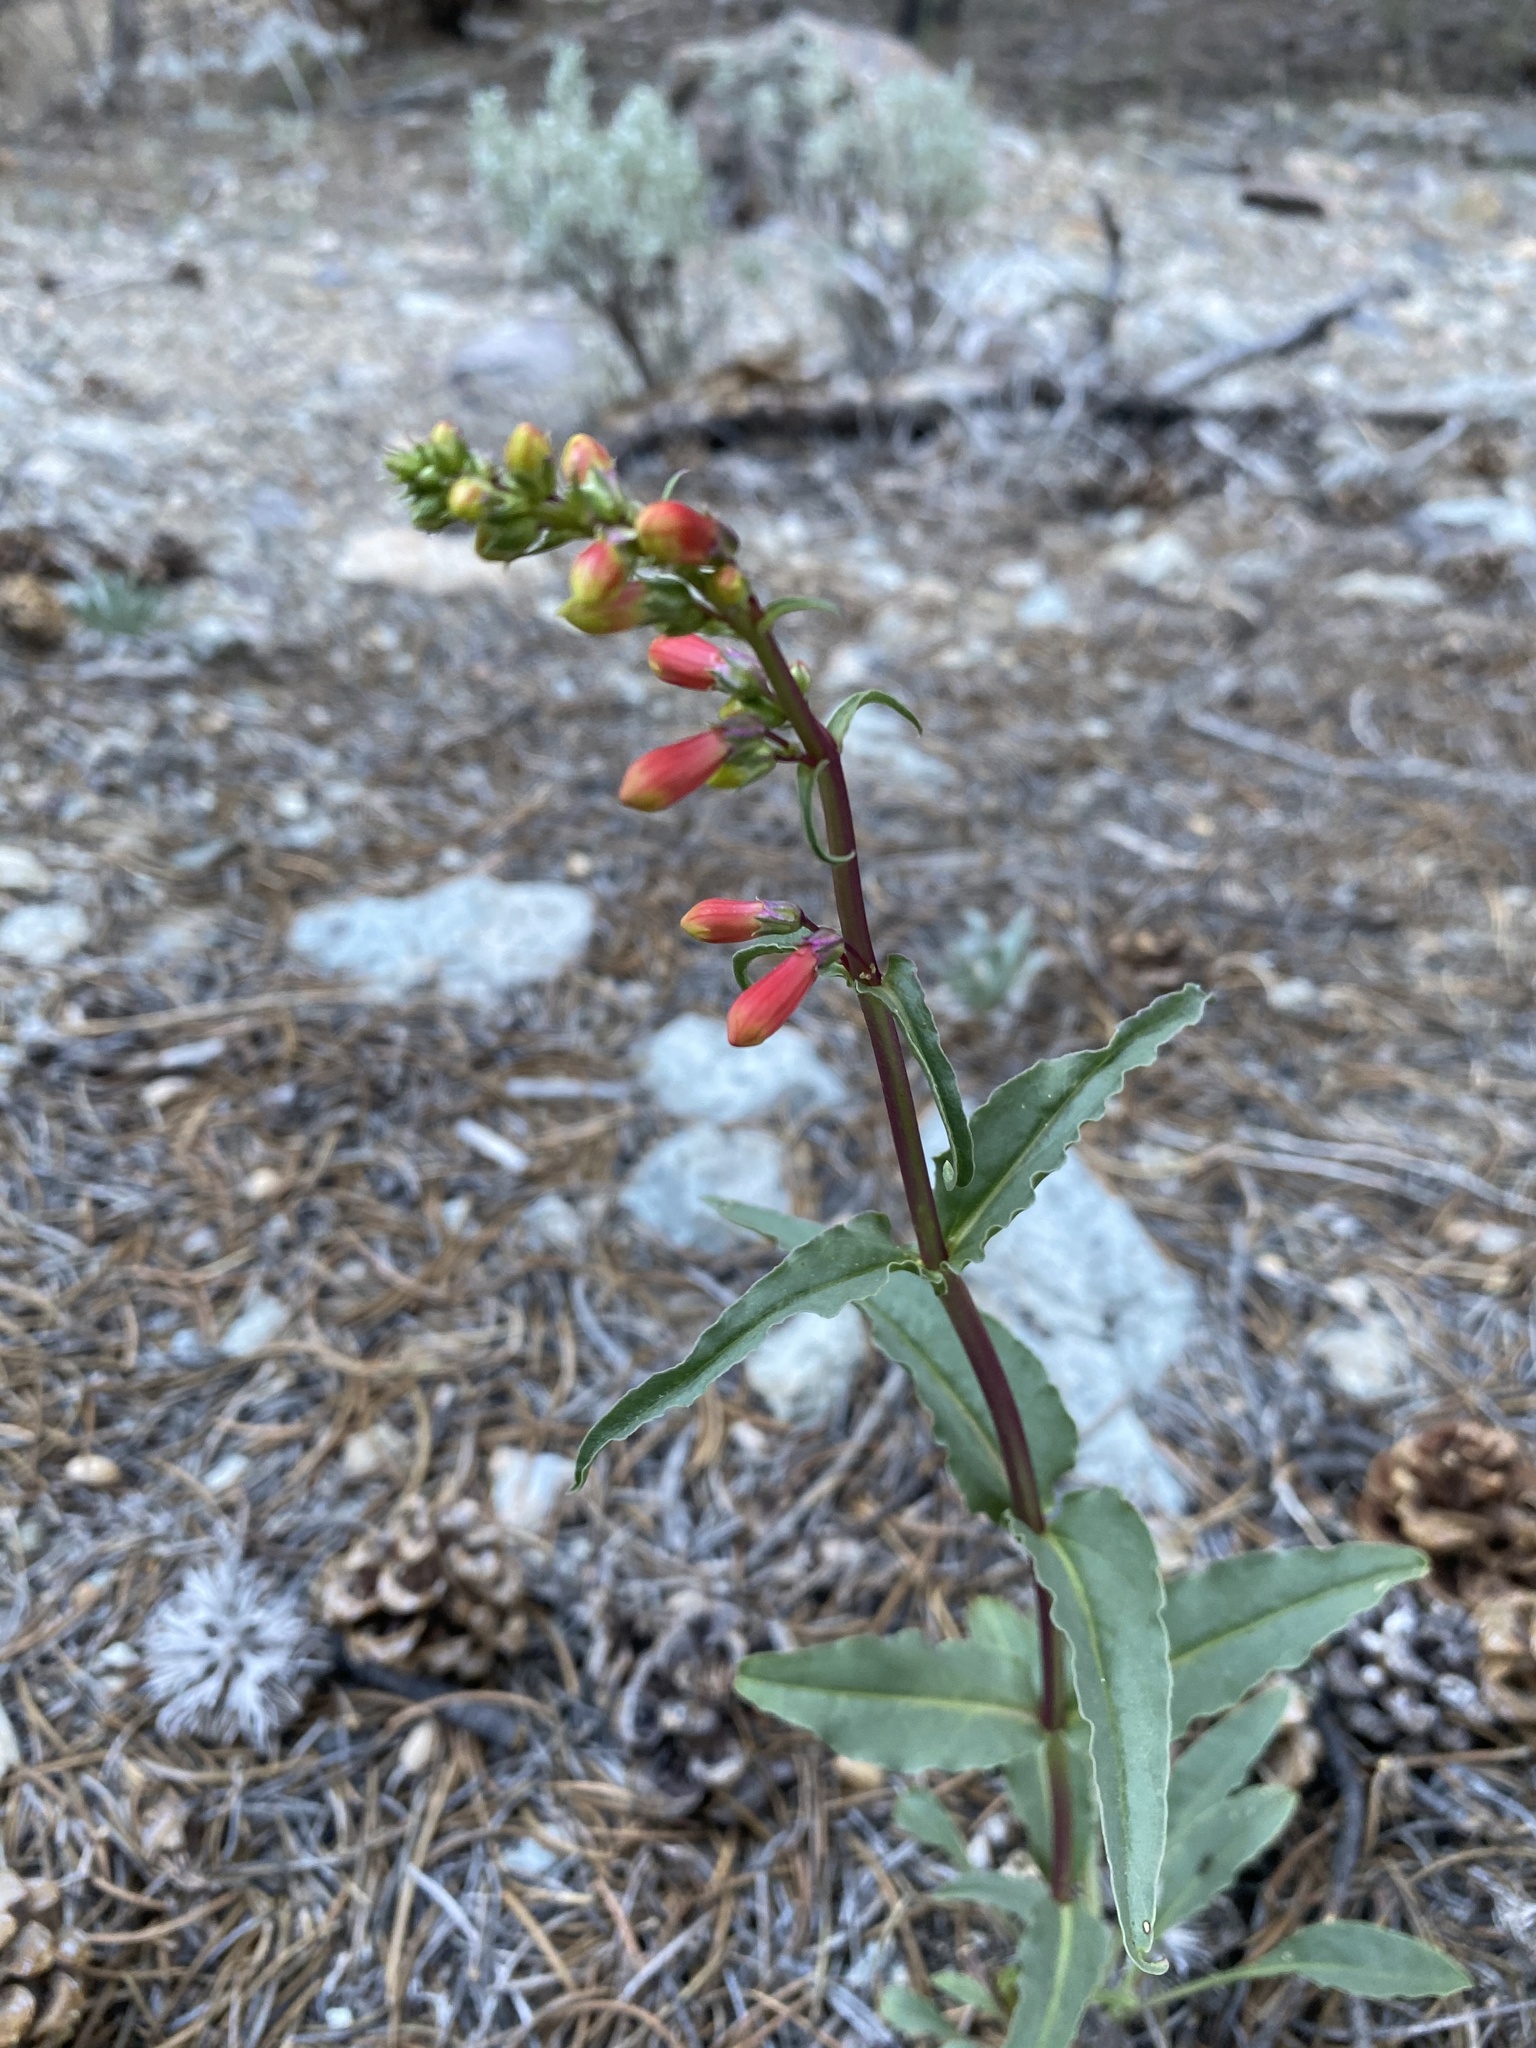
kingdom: Plantae
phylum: Tracheophyta
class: Magnoliopsida
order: Lamiales
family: Plantaginaceae
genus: Penstemon
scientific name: Penstemon eatonii
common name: Eaton's penstemon
